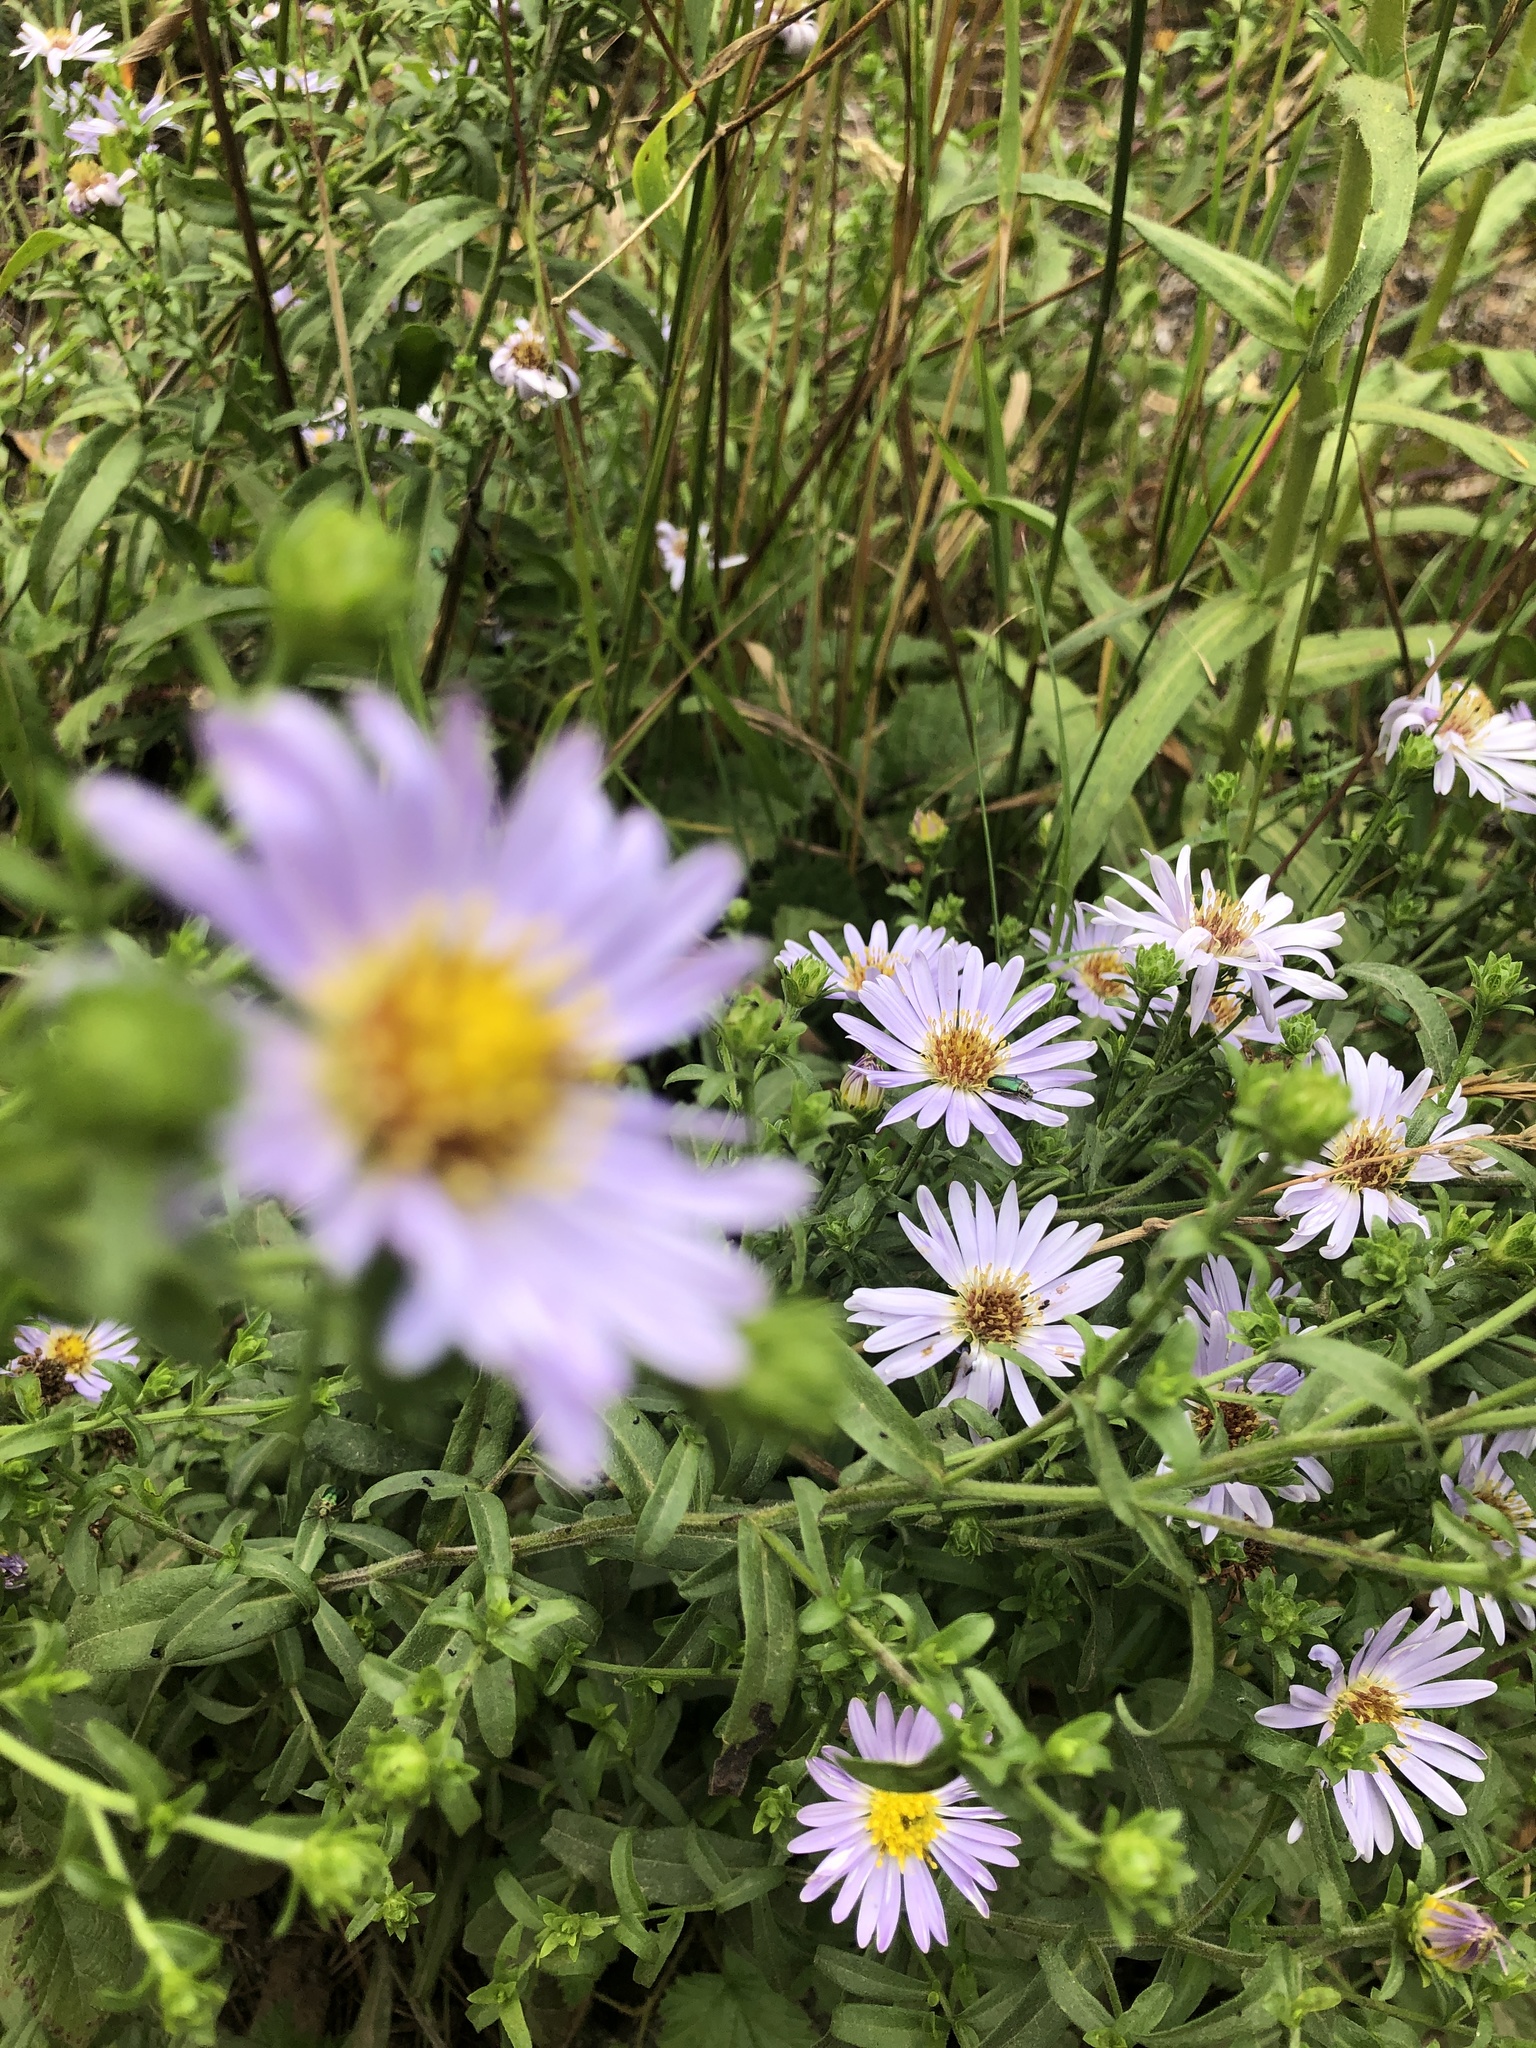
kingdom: Plantae
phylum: Tracheophyta
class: Magnoliopsida
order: Asterales
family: Asteraceae
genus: Symphyotrichum
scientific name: Symphyotrichum chilense
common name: Pacific aster
